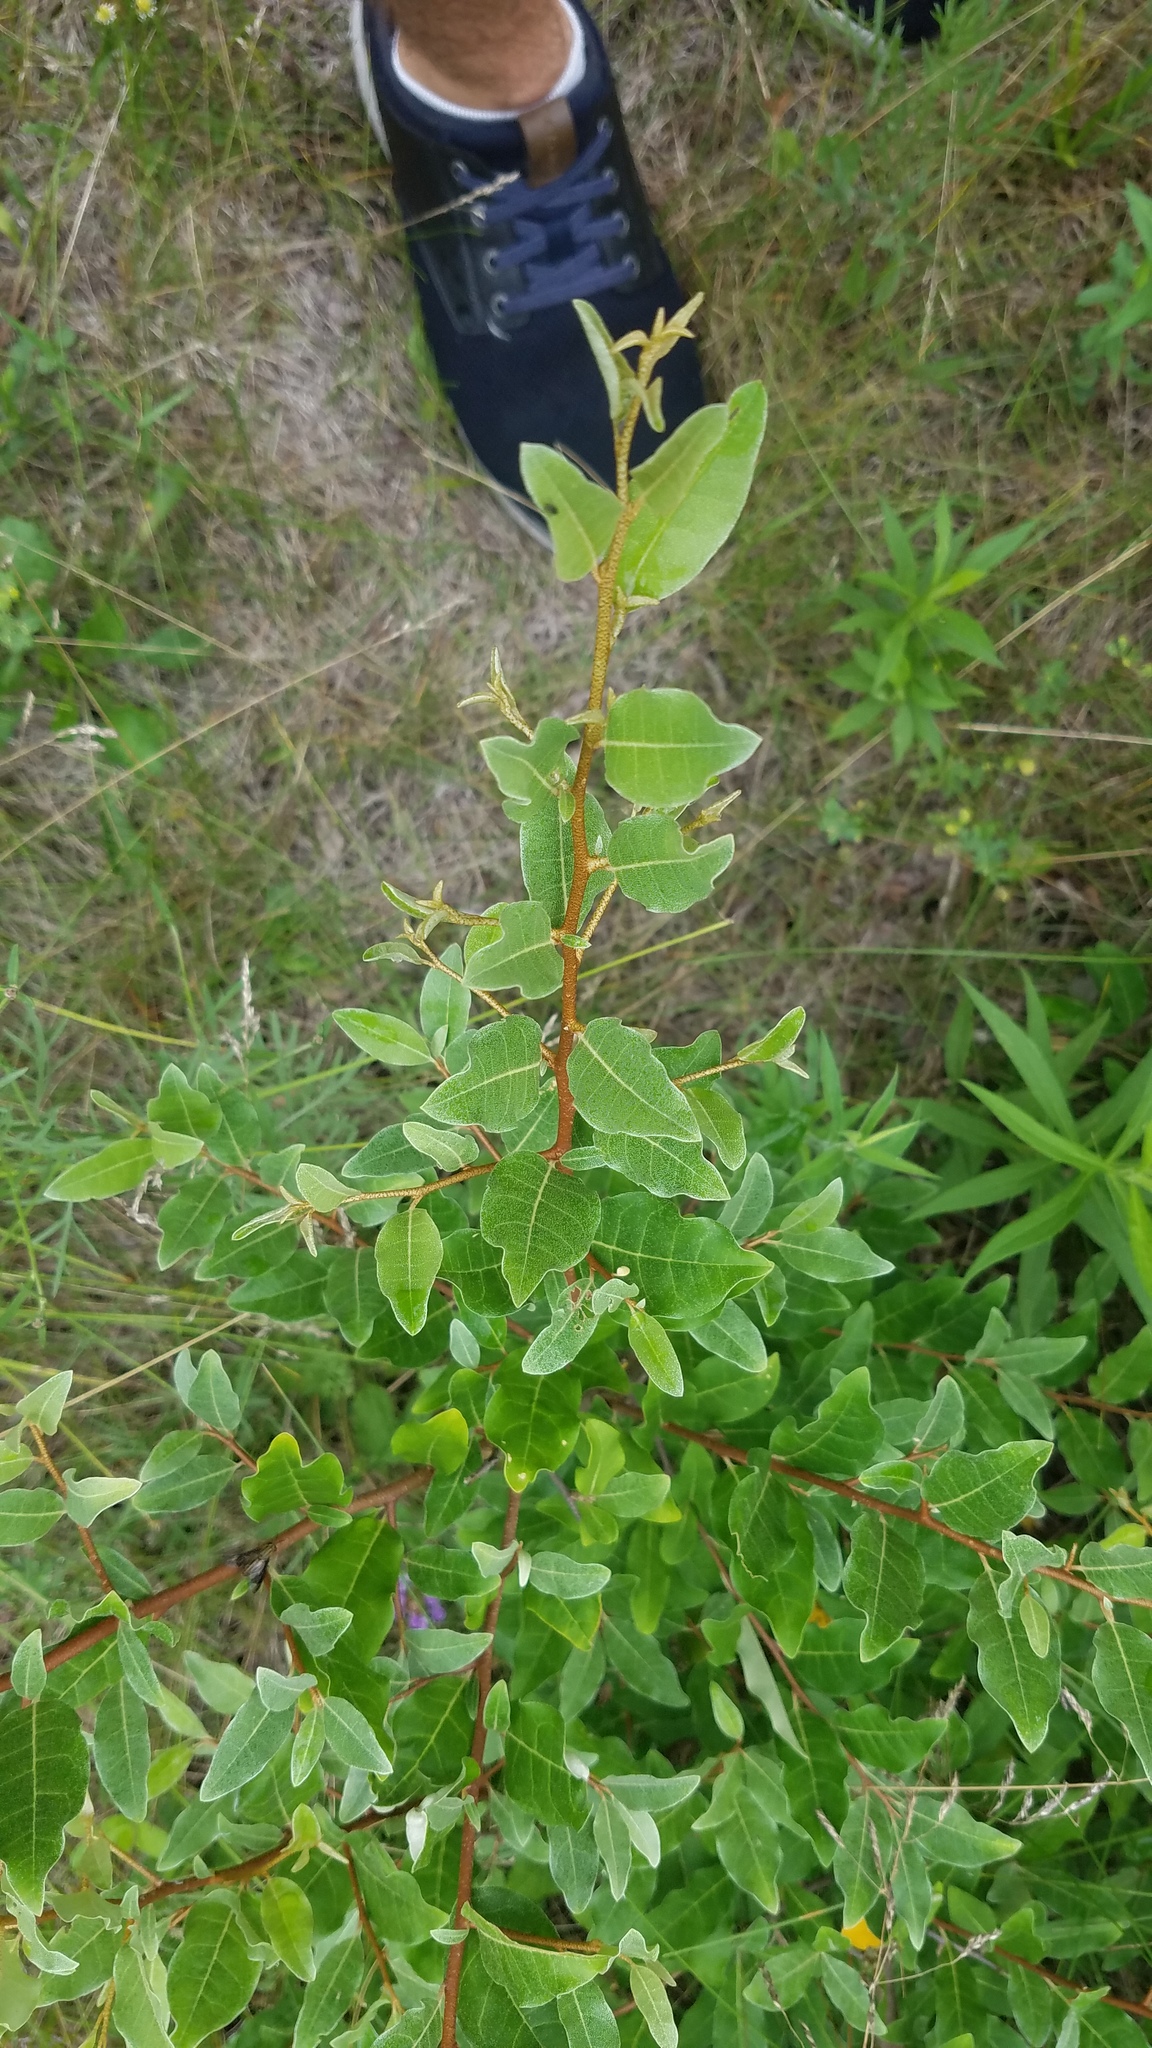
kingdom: Plantae
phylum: Tracheophyta
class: Magnoliopsida
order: Rosales
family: Elaeagnaceae
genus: Elaeagnus
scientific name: Elaeagnus umbellata
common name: Autumn olive
